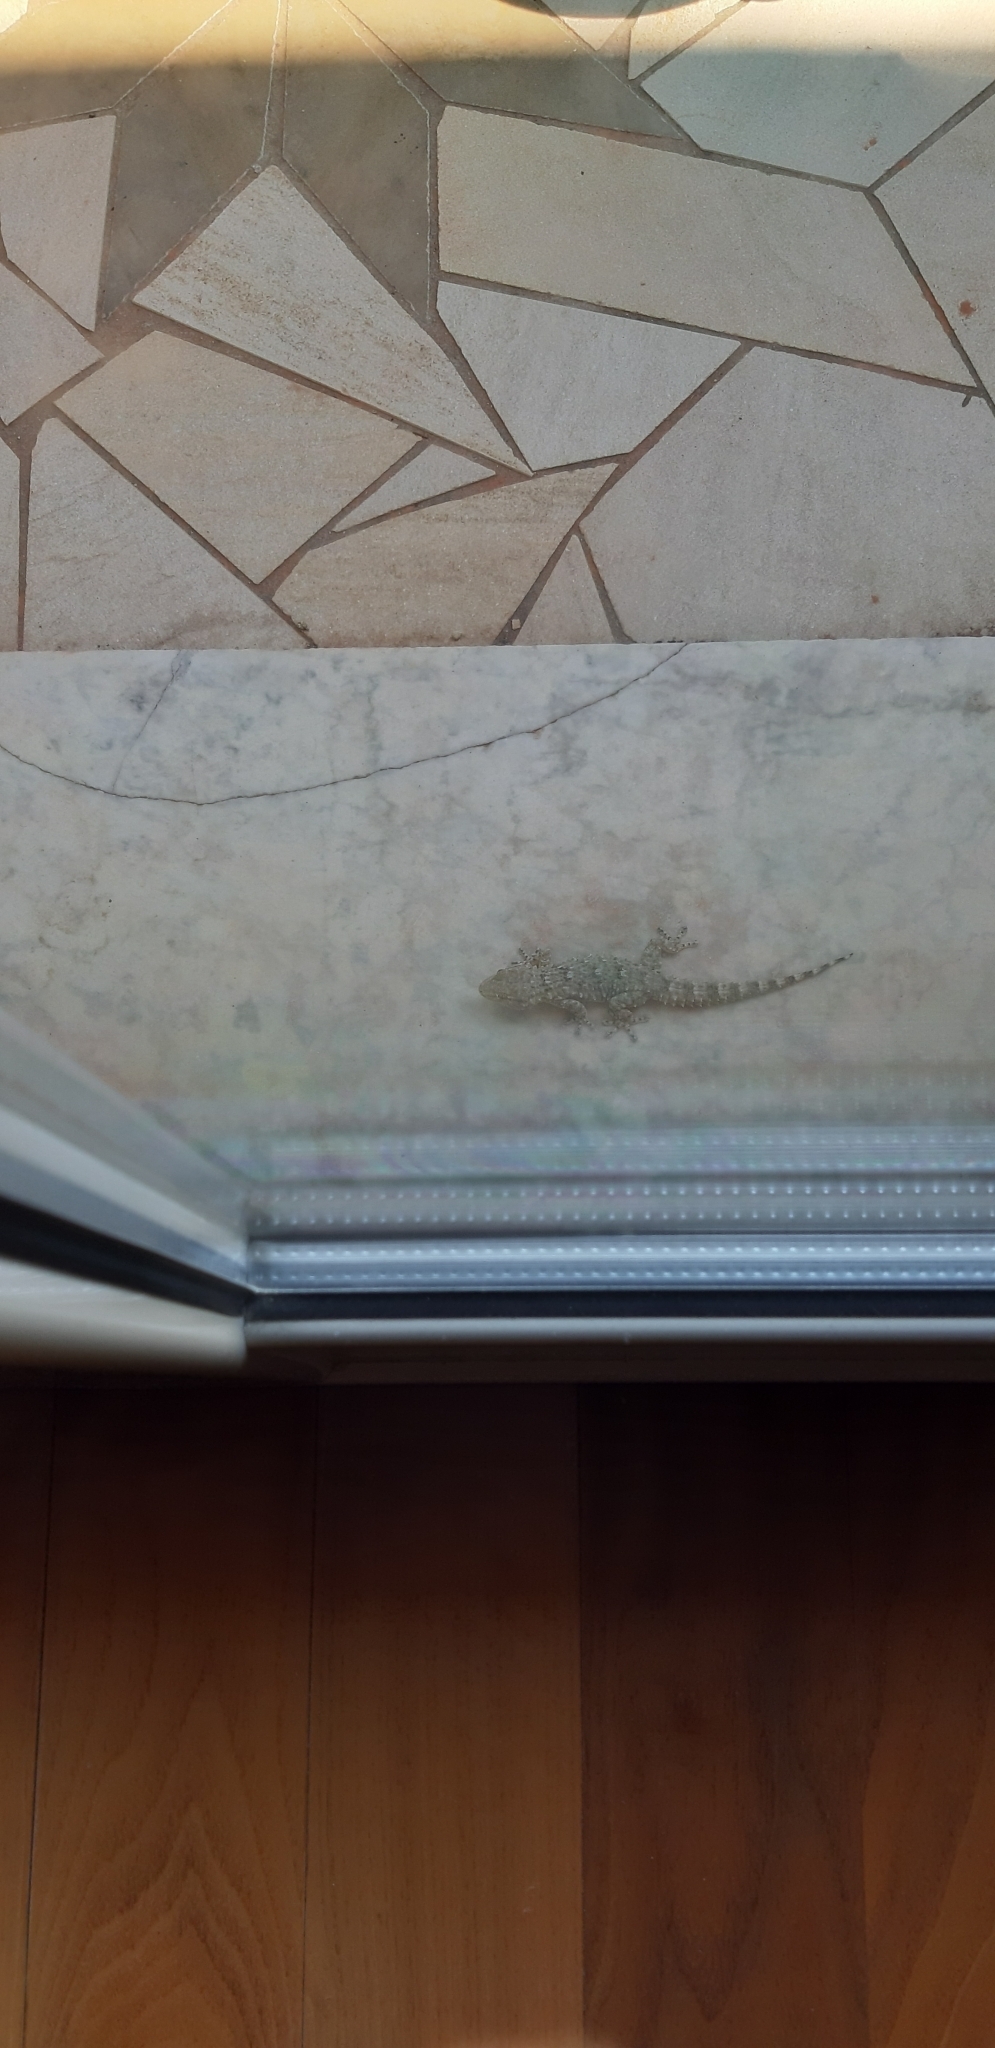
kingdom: Animalia
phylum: Chordata
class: Squamata
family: Phyllodactylidae
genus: Tarentola
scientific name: Tarentola mauritanica
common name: Moorish gecko
